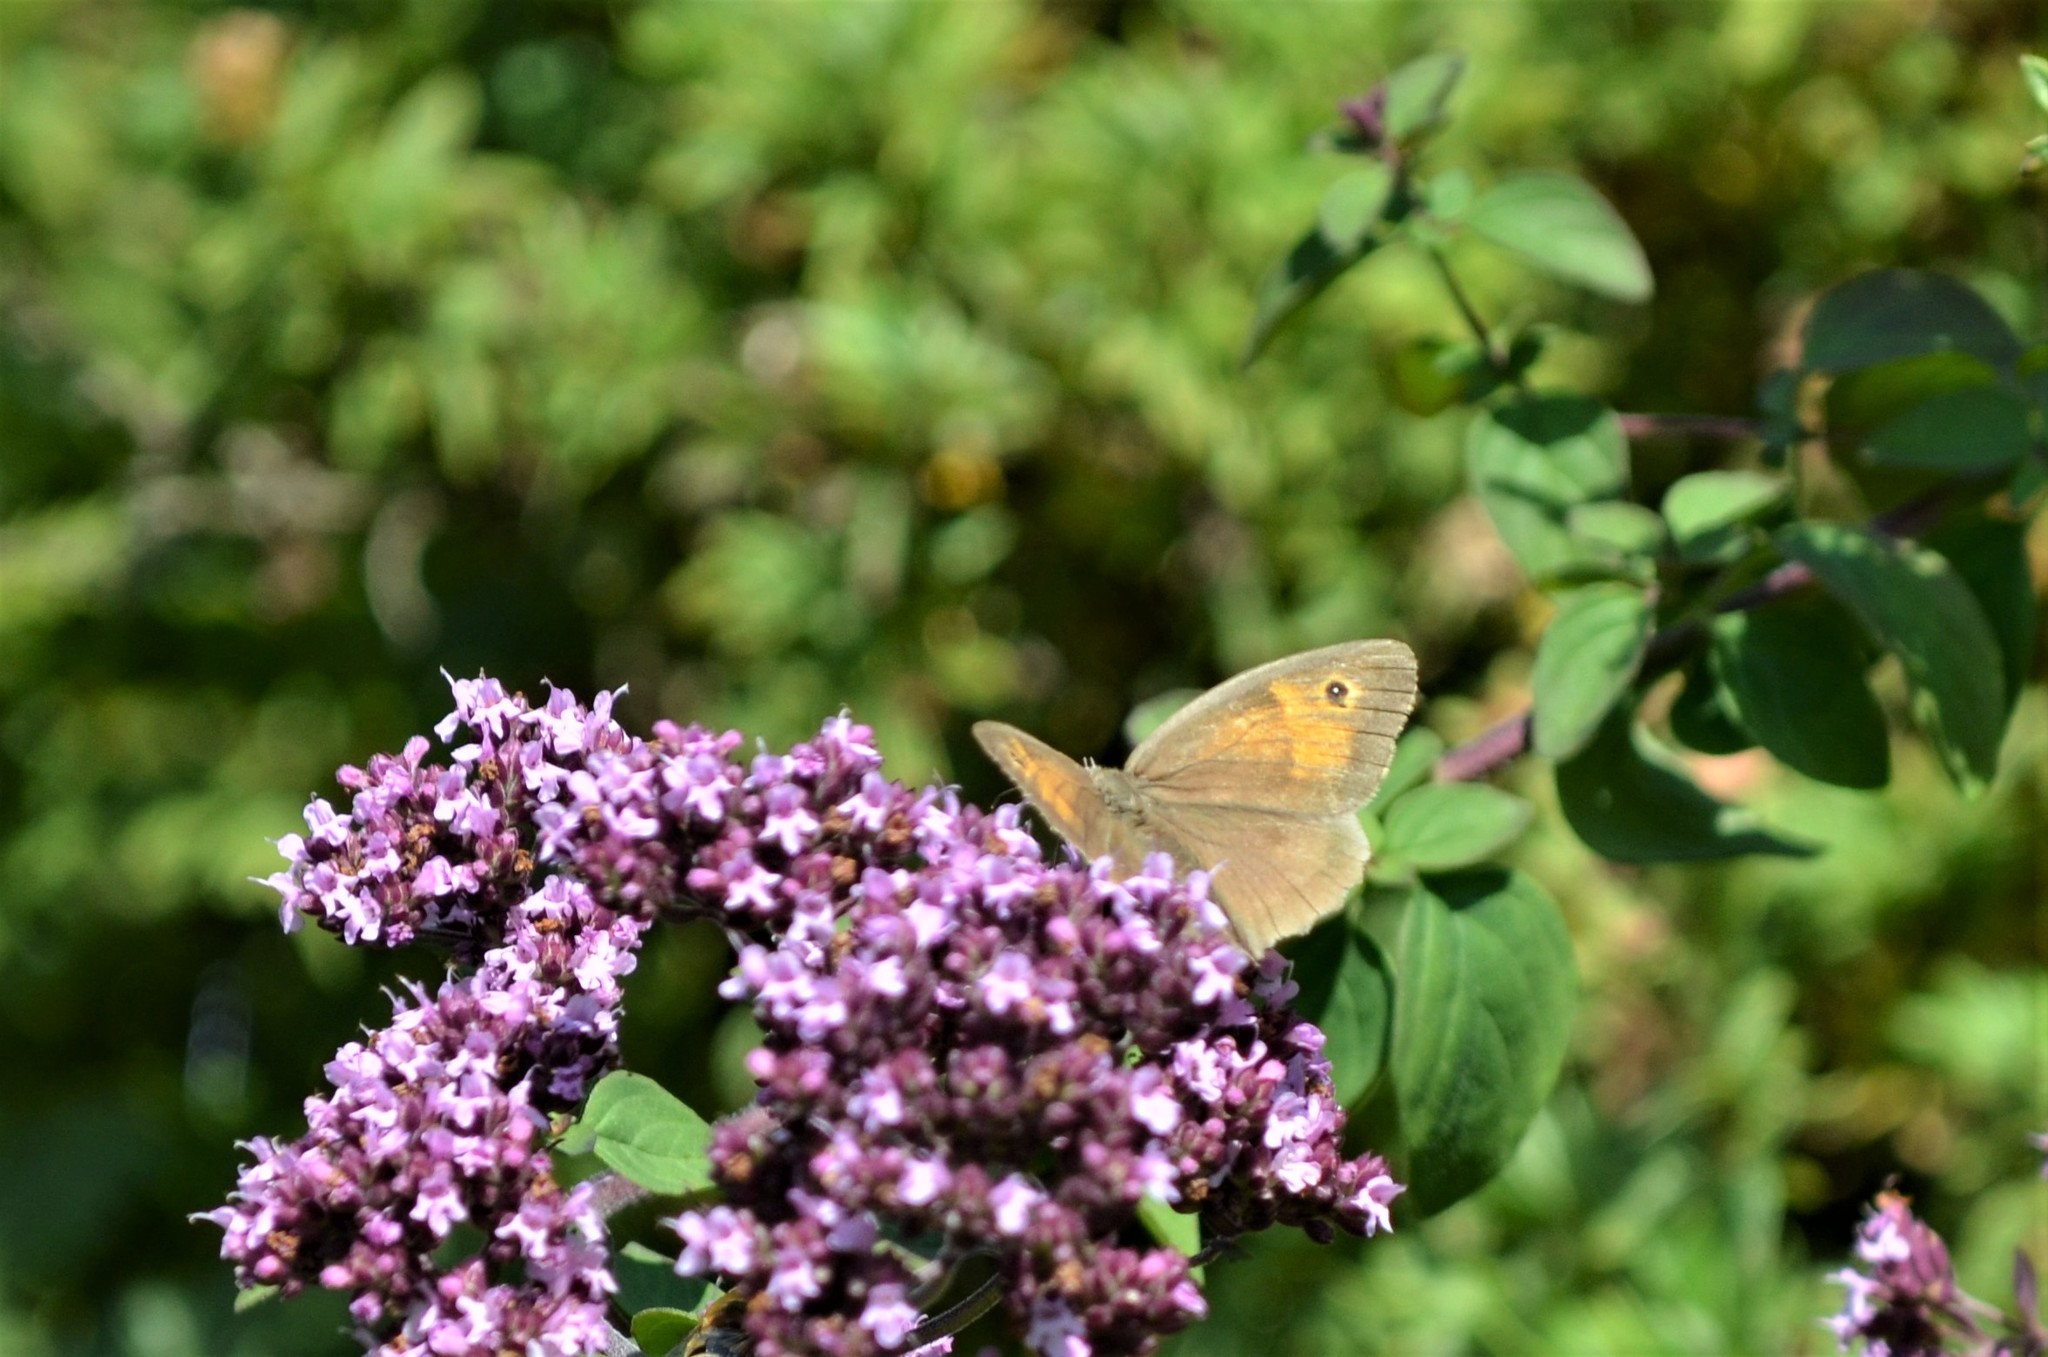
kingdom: Animalia
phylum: Arthropoda
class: Insecta
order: Lepidoptera
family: Nymphalidae
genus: Maniola
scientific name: Maniola jurtina
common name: Meadow brown
